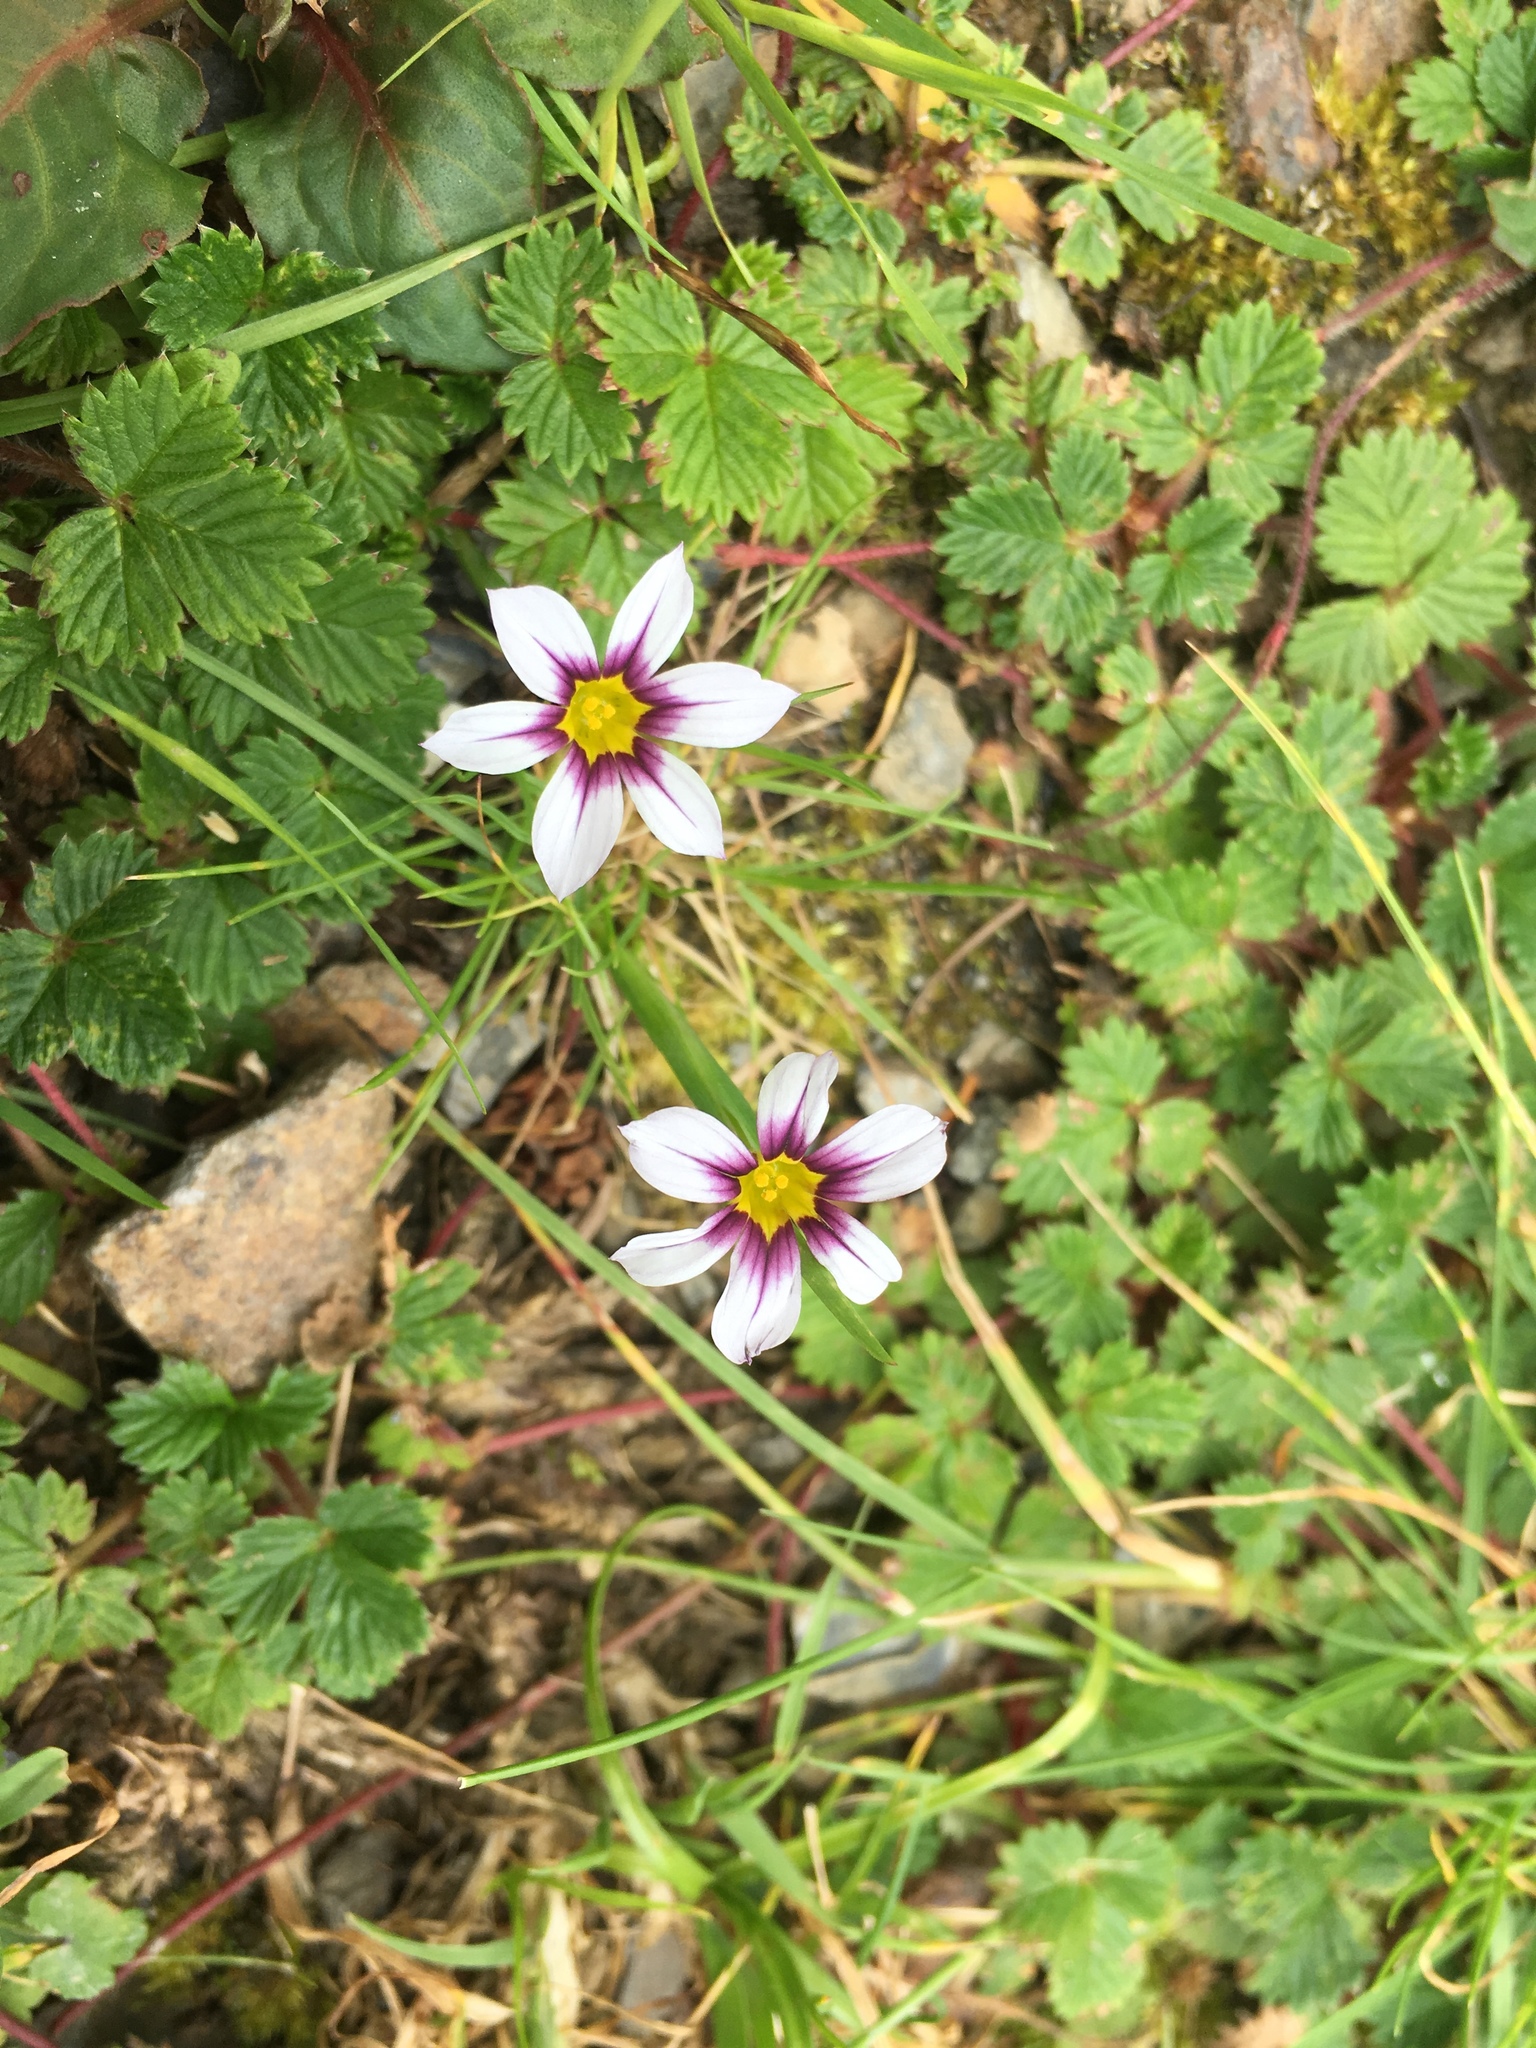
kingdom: Plantae
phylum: Tracheophyta
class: Liliopsida
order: Asparagales
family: Iridaceae
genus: Sisyrinchium
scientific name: Sisyrinchium micranthum
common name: Bermuda pigroot
